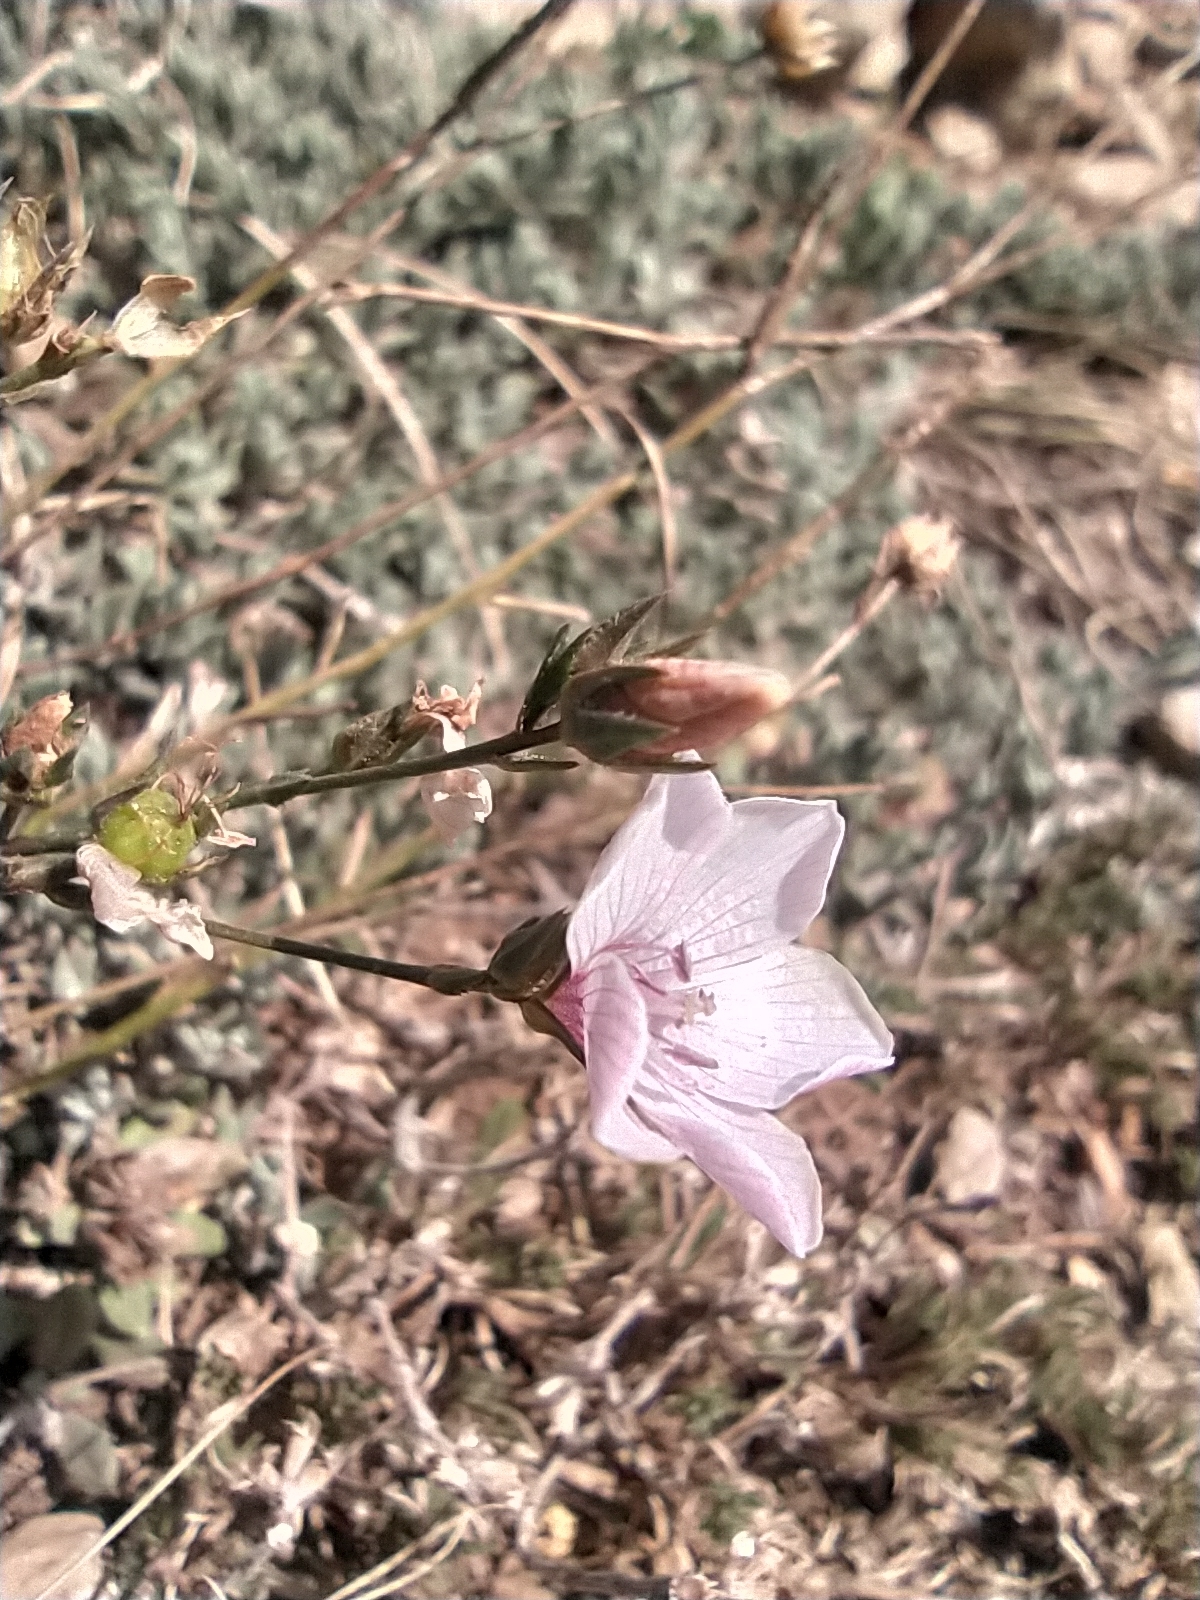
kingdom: Plantae
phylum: Tracheophyta
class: Magnoliopsida
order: Malpighiales
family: Linaceae
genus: Linum
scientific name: Linum tenuifolium
